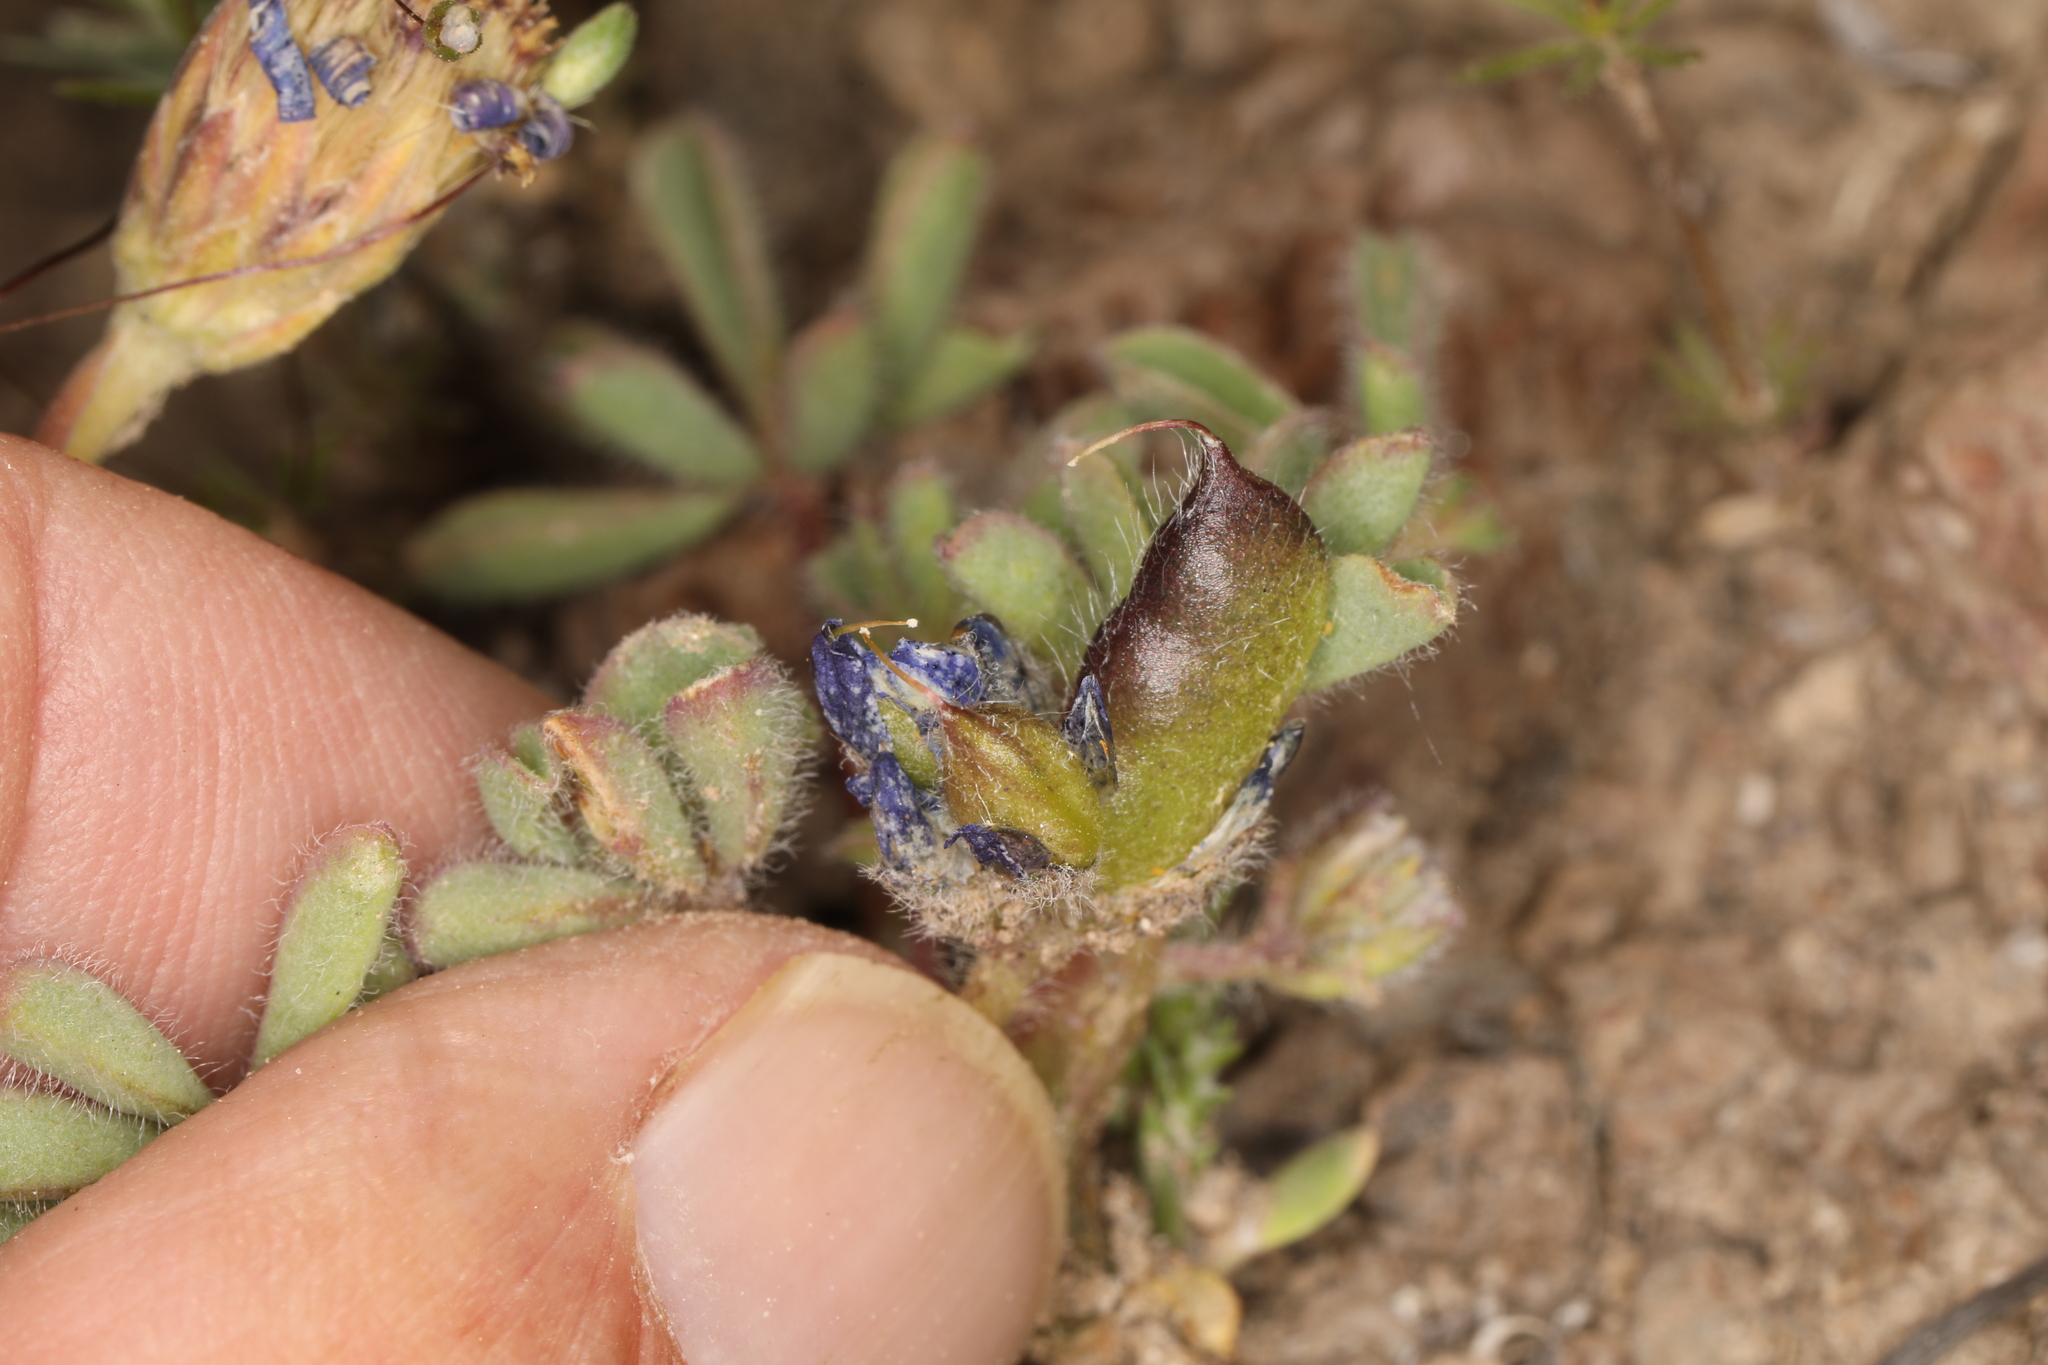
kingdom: Plantae
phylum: Tracheophyta
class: Magnoliopsida
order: Fabales
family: Fabaceae
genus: Lupinus
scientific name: Lupinus brevicaulis
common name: Sand lupine
